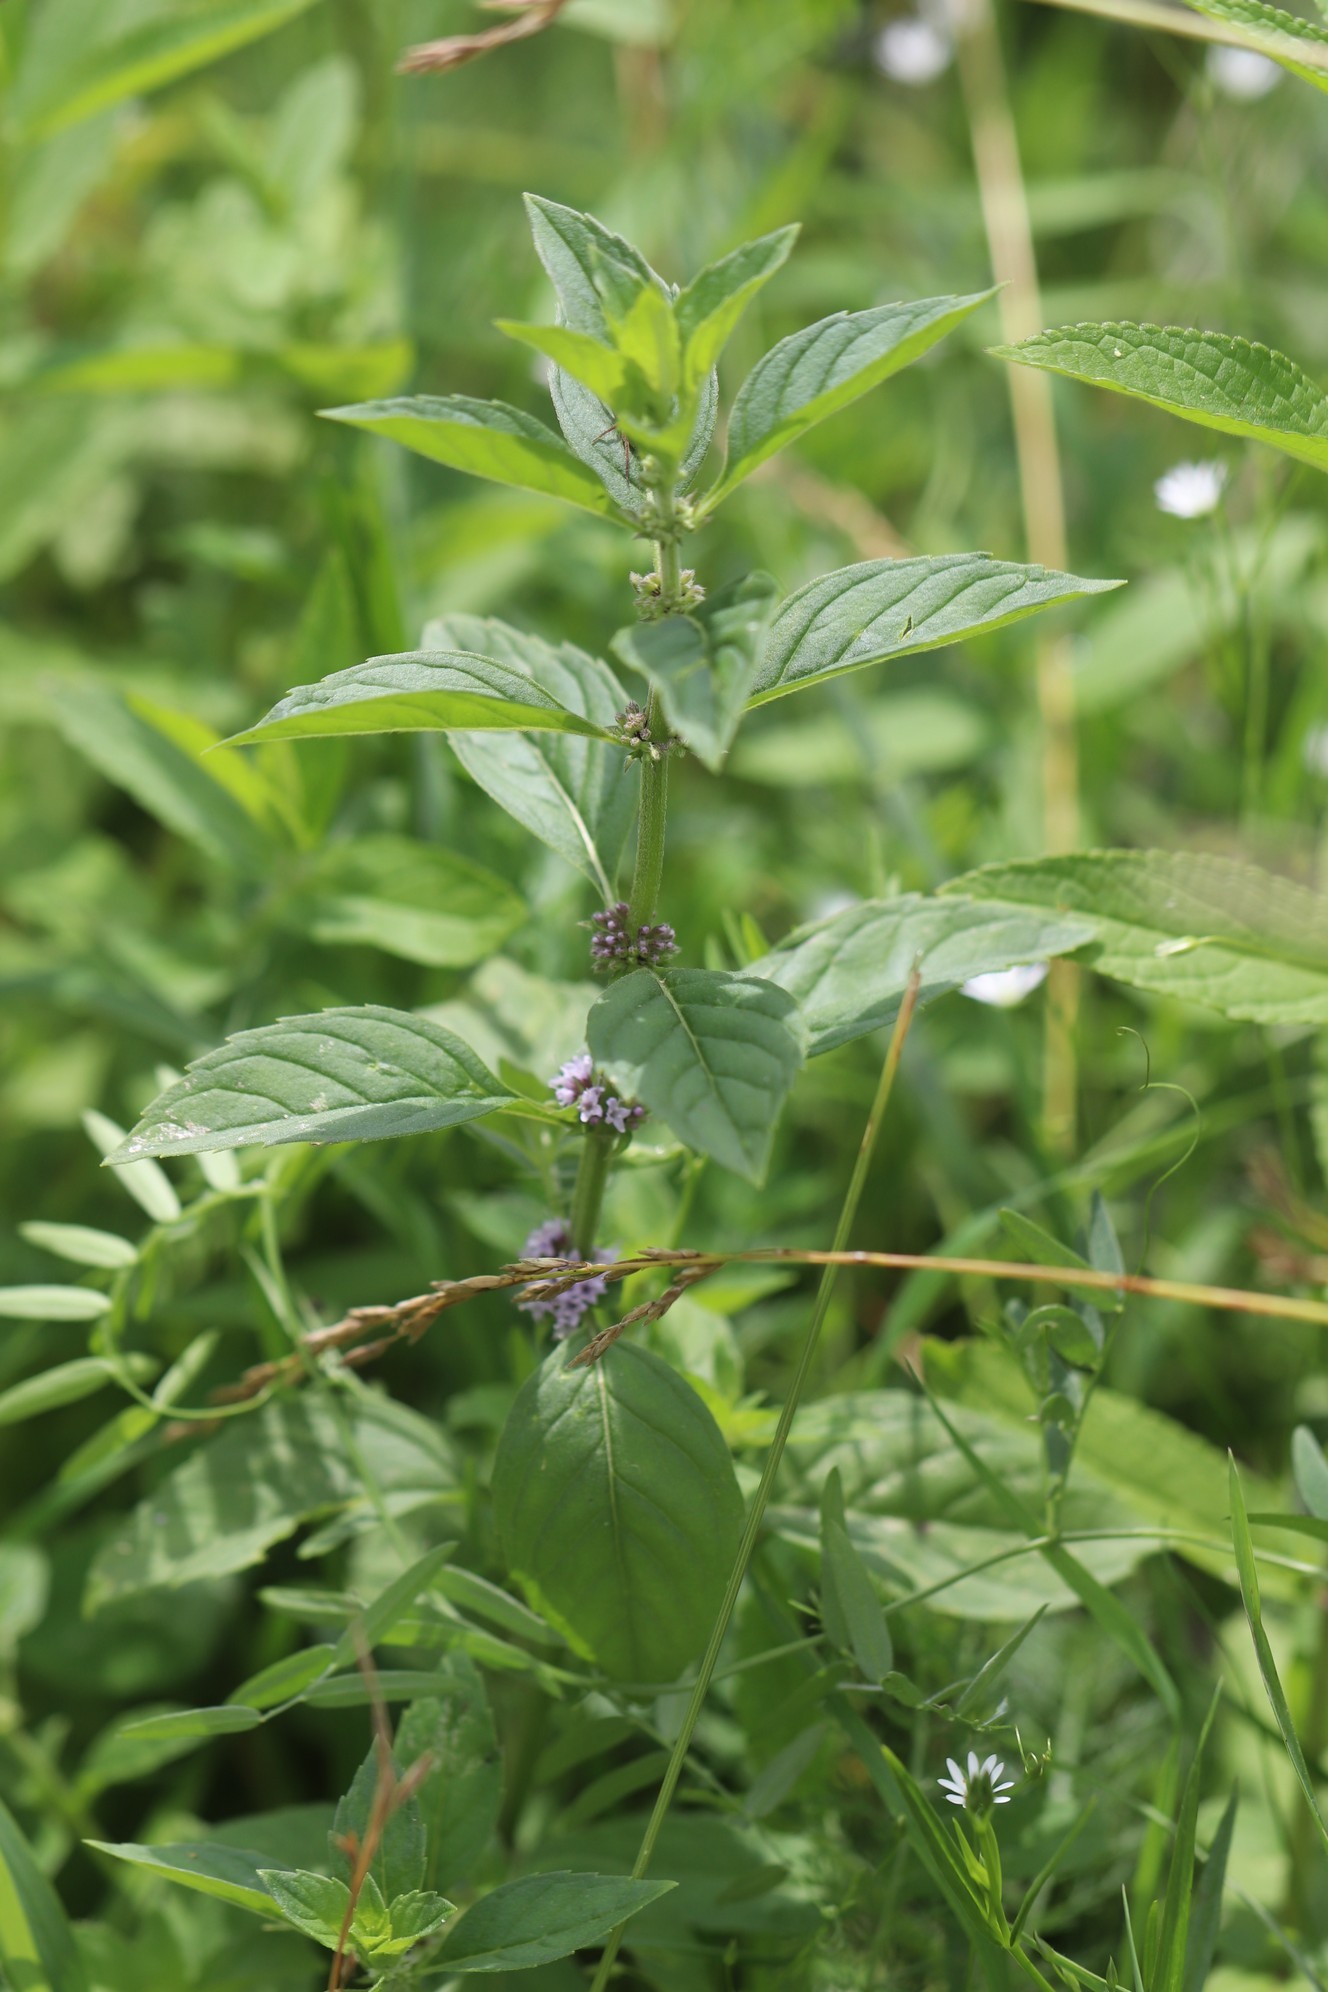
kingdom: Plantae
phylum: Tracheophyta
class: Magnoliopsida
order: Lamiales
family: Lamiaceae
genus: Mentha
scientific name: Mentha arvensis
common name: Corn mint
